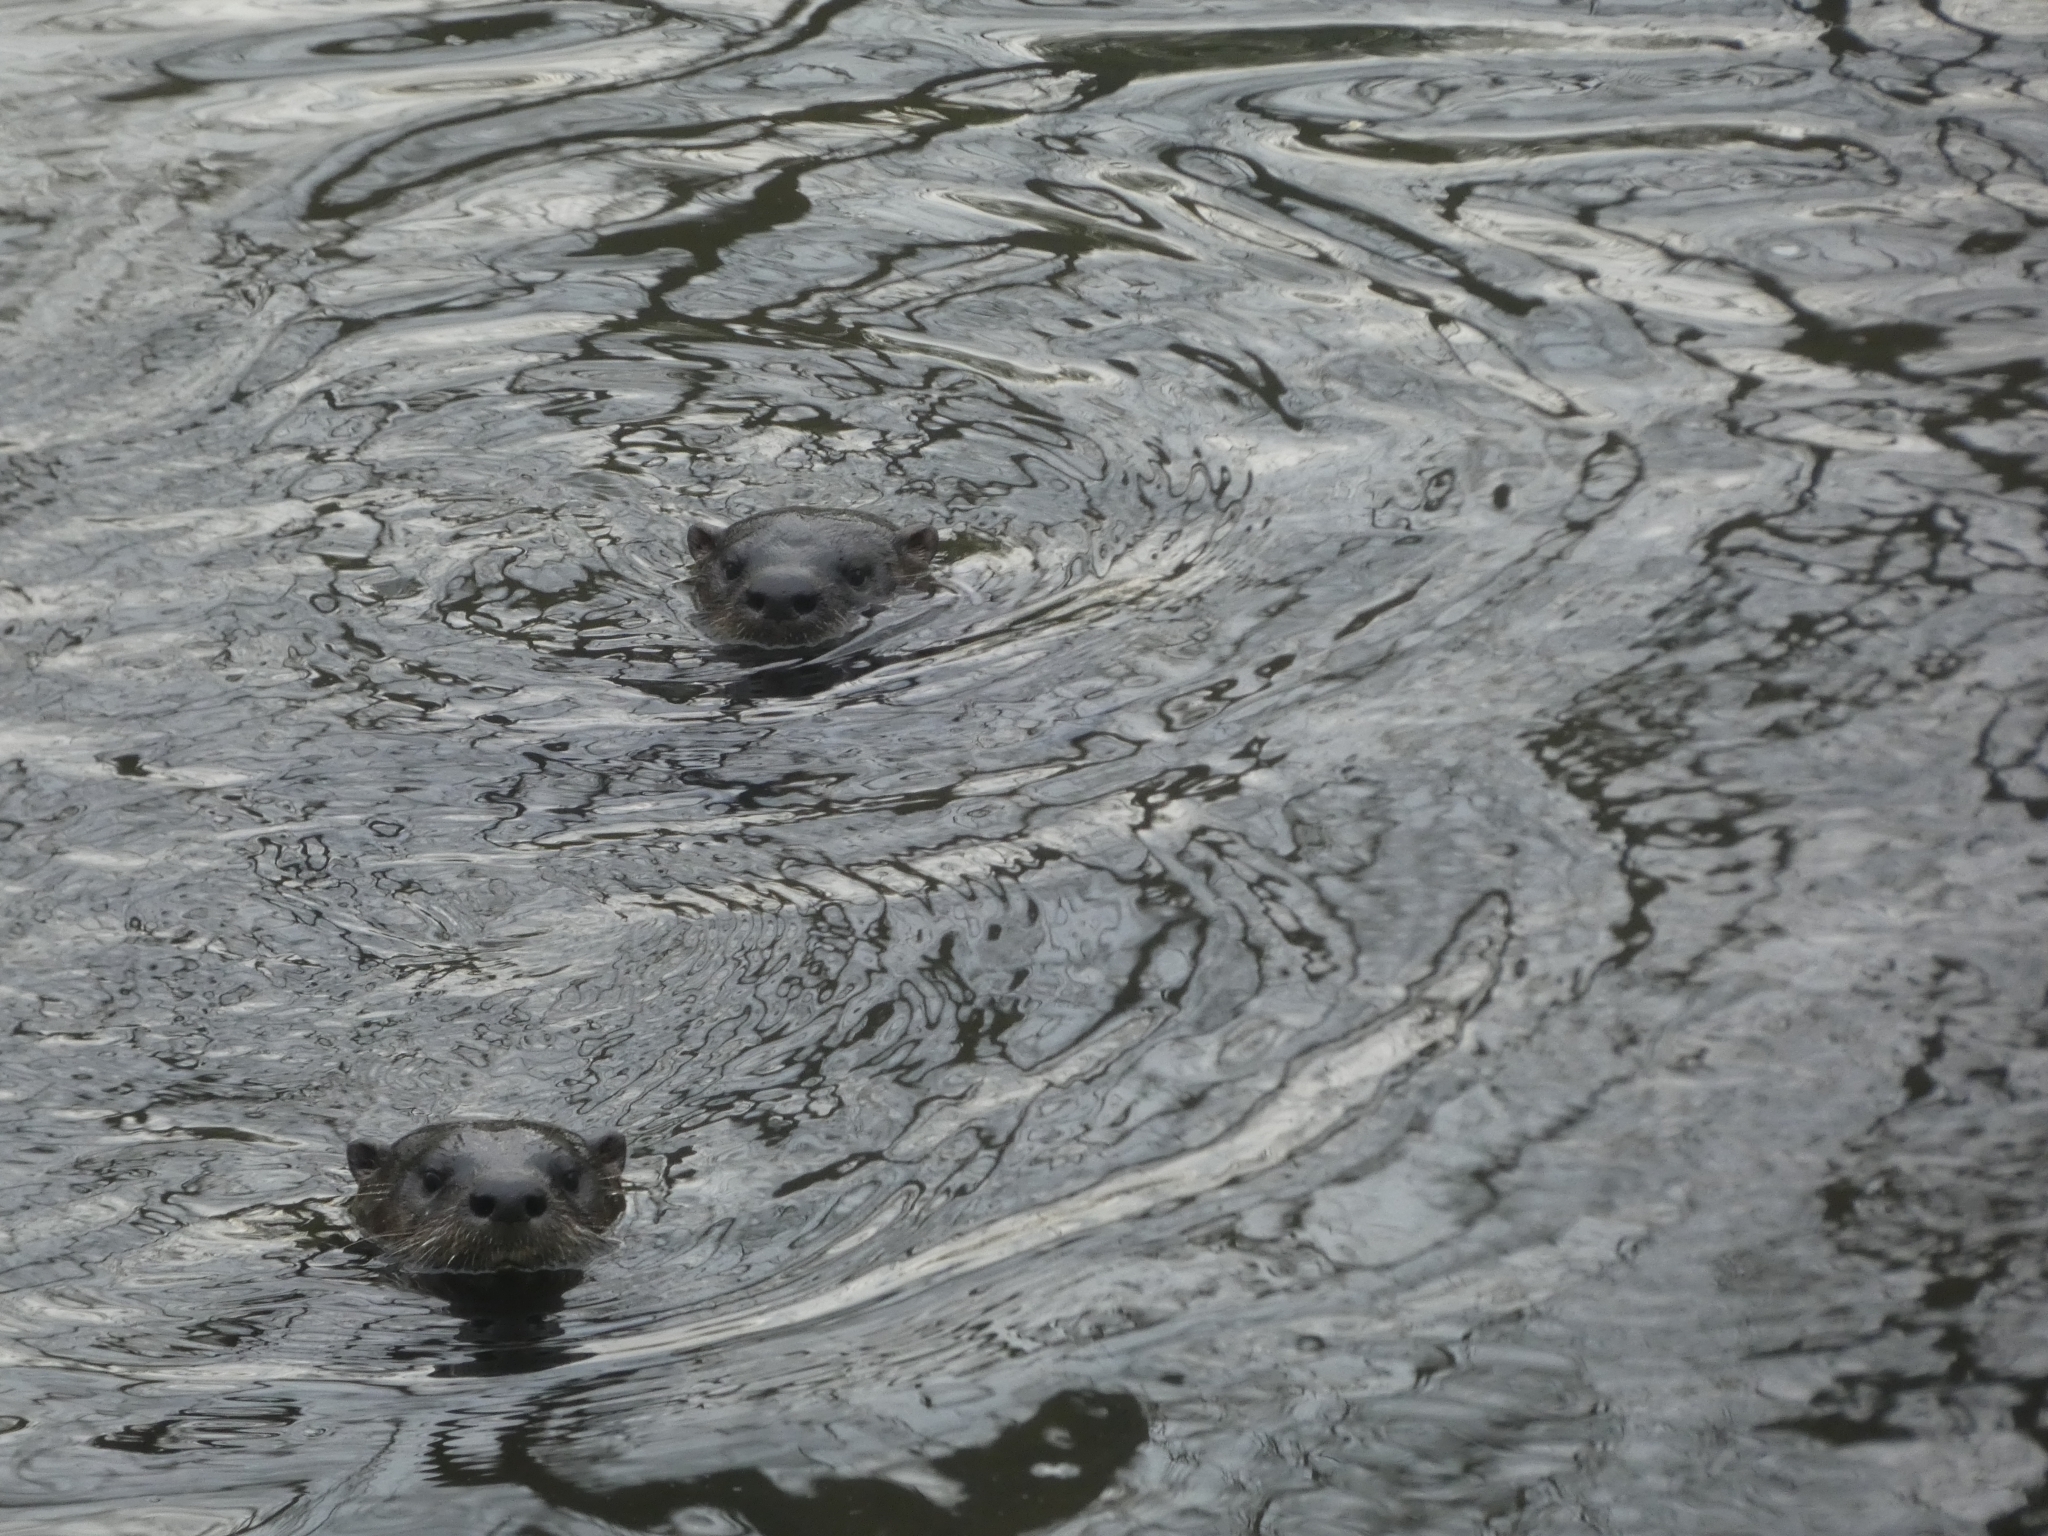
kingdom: Animalia
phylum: Chordata
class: Mammalia
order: Carnivora
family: Mustelidae
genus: Lontra
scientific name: Lontra canadensis
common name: North american river otter
